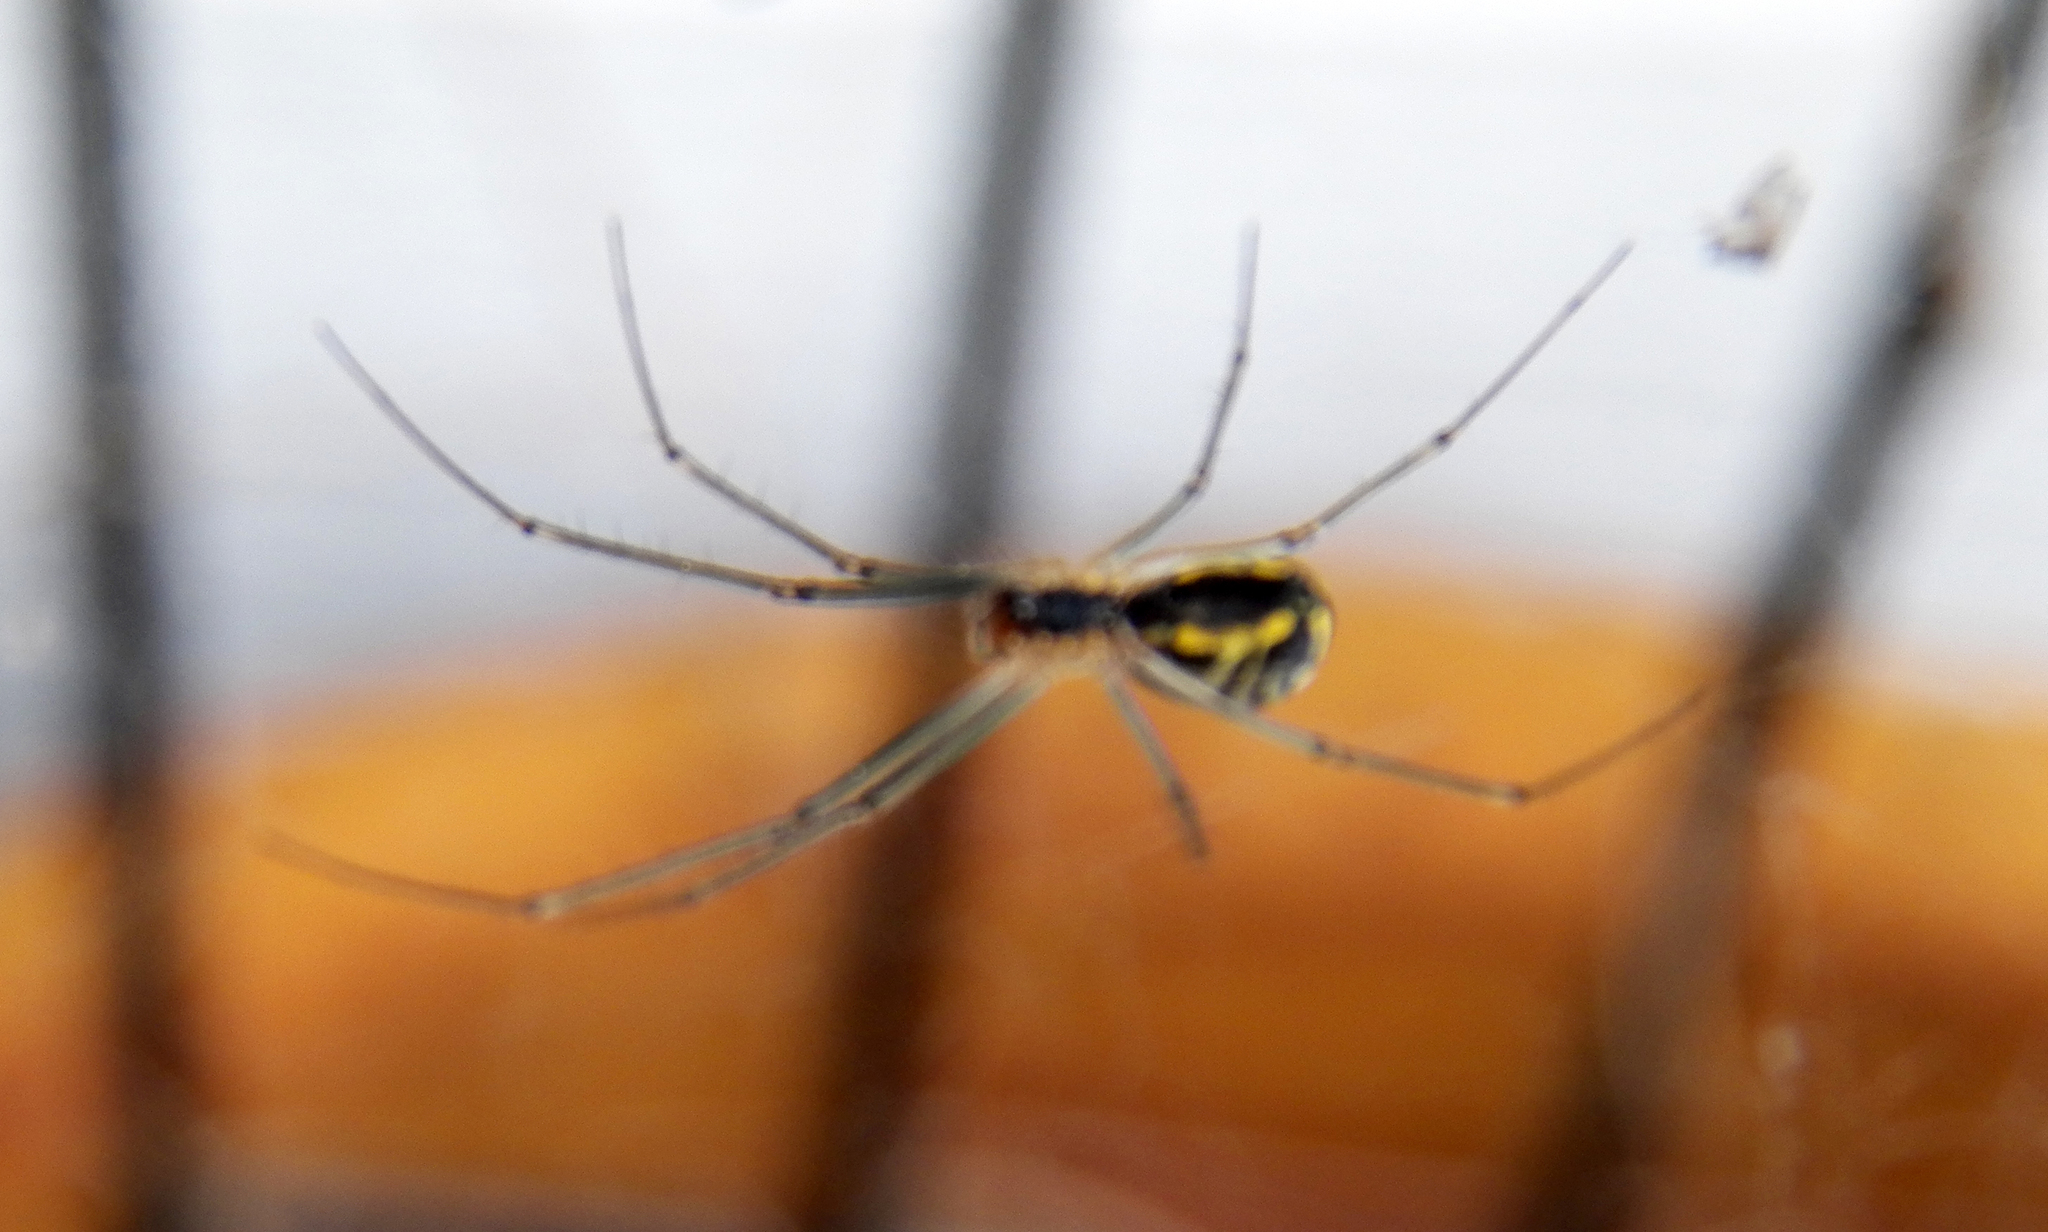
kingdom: Animalia
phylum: Arthropoda
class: Arachnida
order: Araneae
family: Linyphiidae
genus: Neriene
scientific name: Neriene radiata
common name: Filmy dome spider
